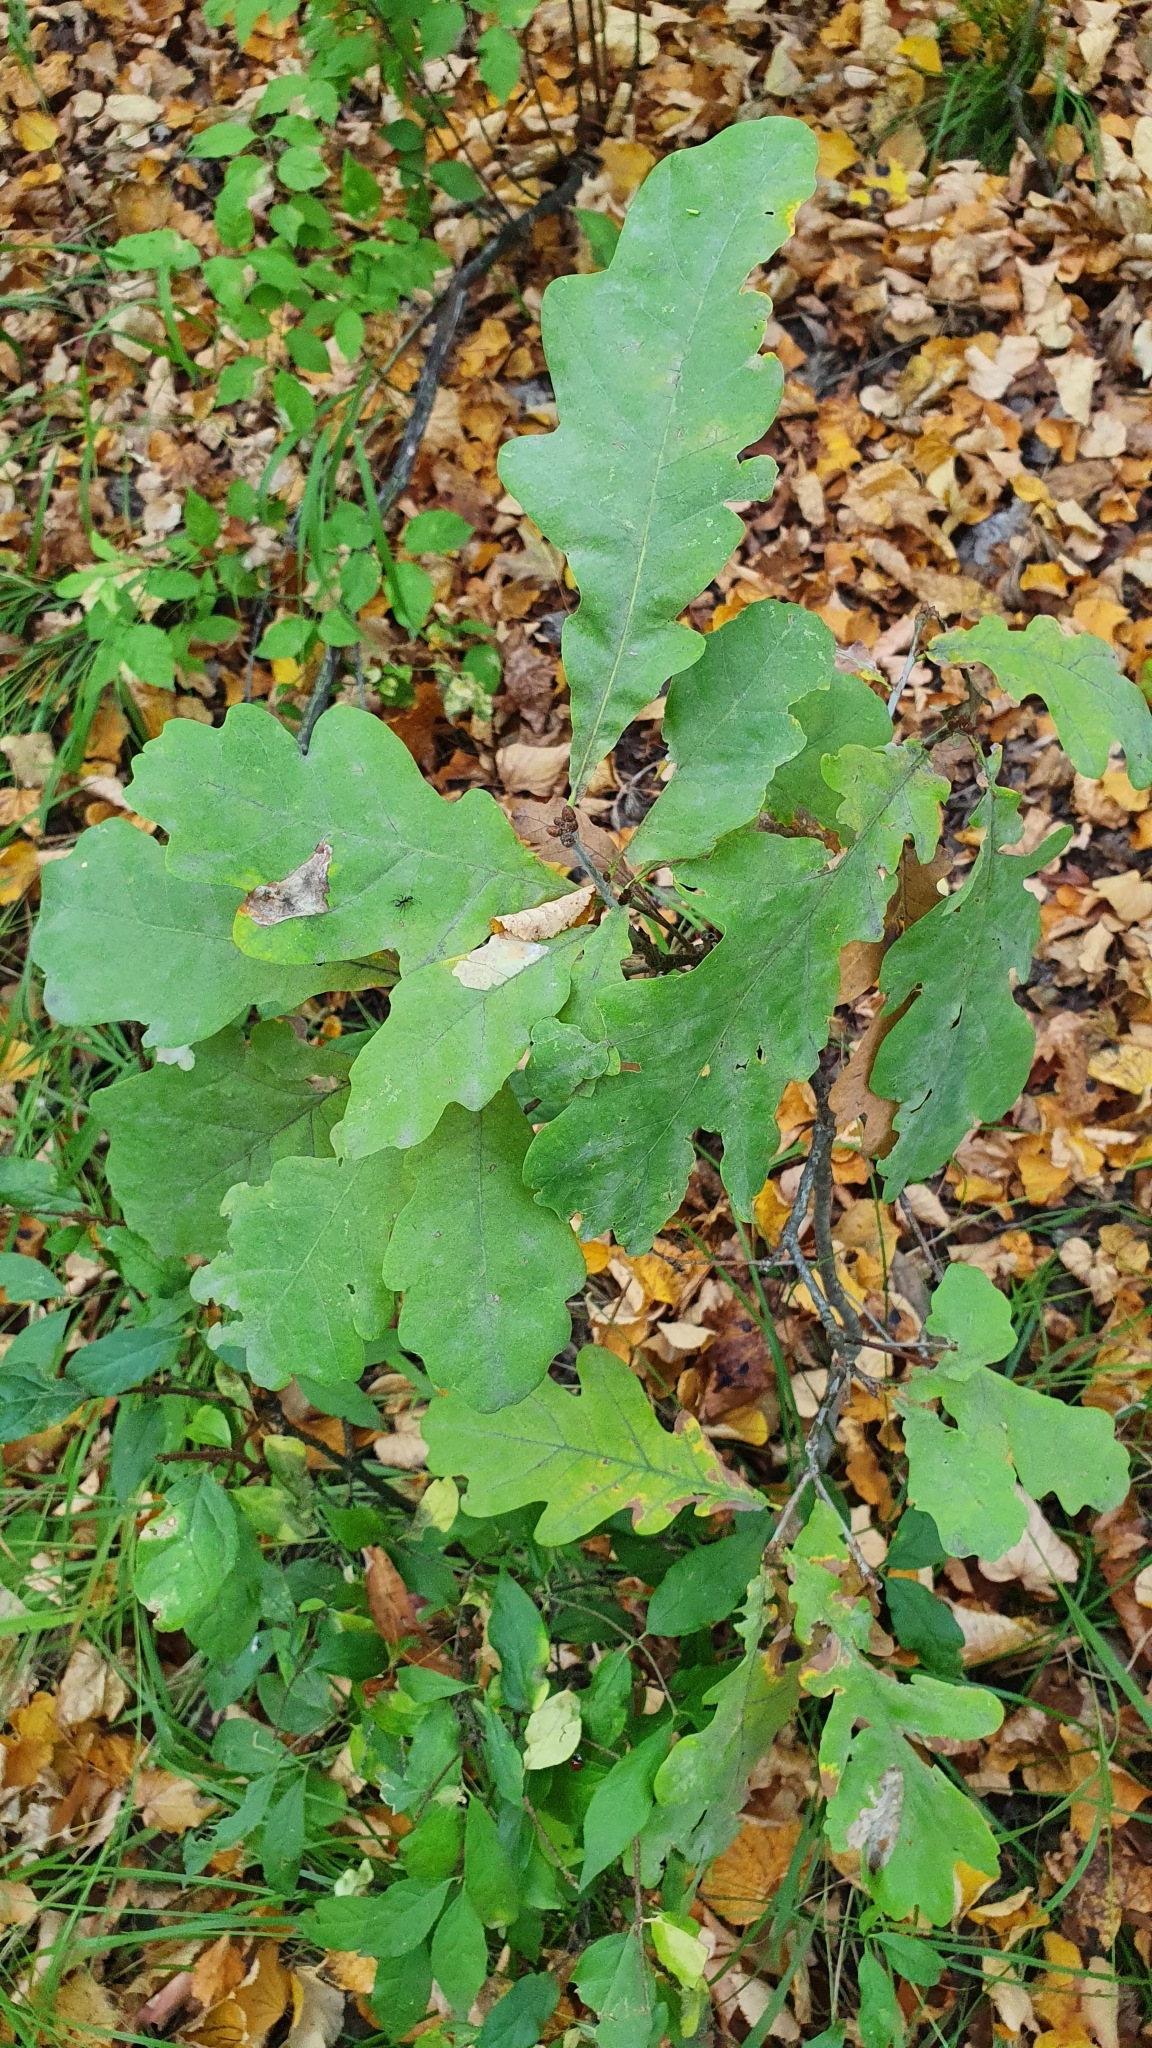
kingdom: Plantae
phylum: Tracheophyta
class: Magnoliopsida
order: Fagales
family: Fagaceae
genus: Quercus
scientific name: Quercus robur
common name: Pedunculate oak
